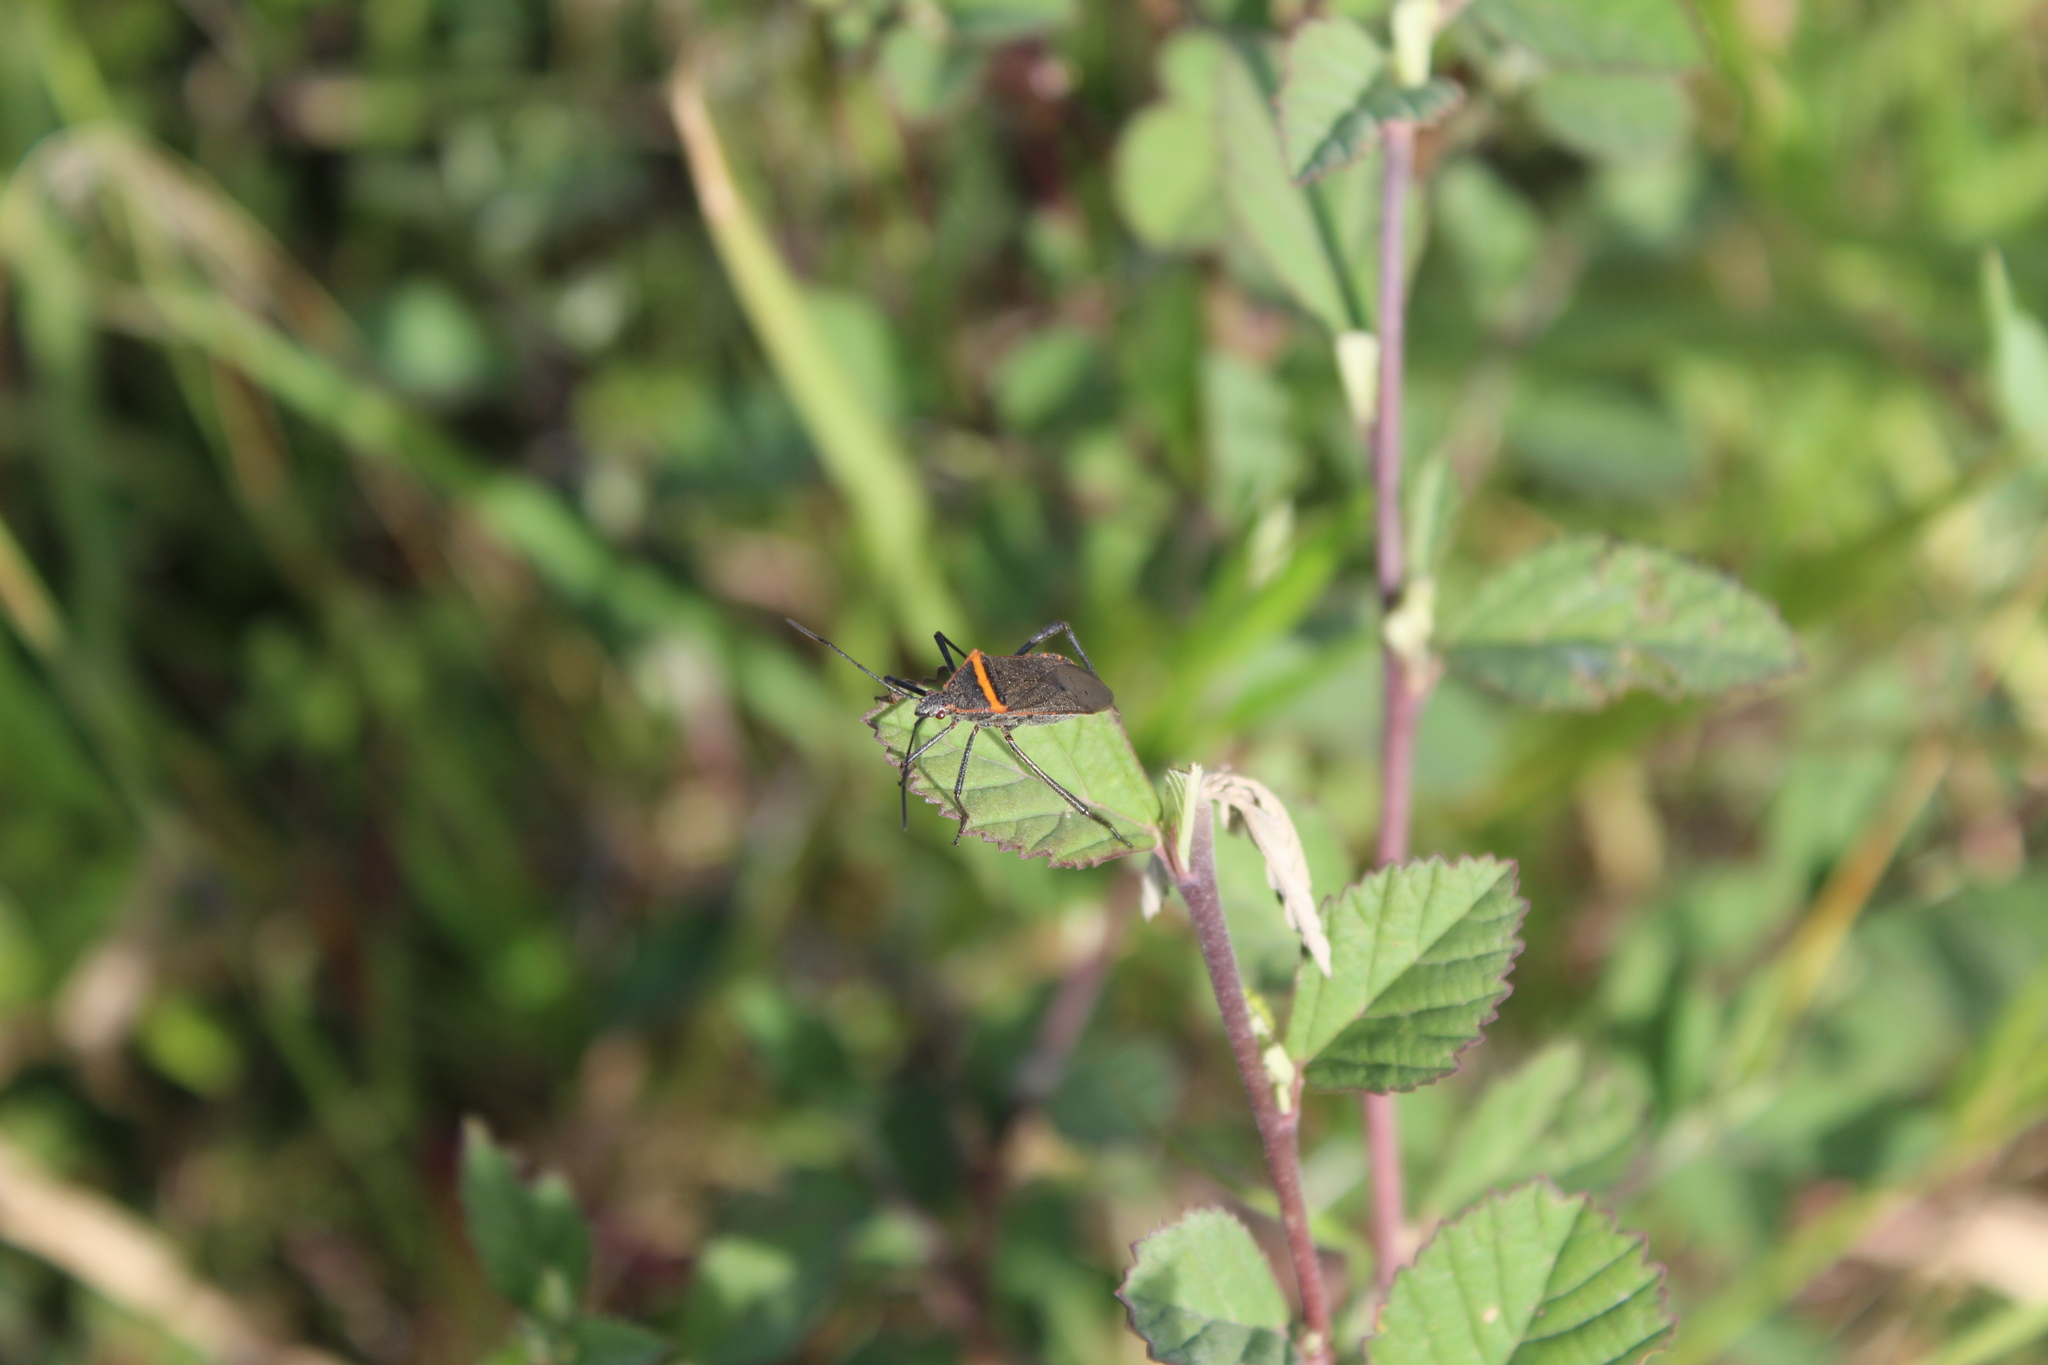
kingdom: Animalia
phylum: Arthropoda
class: Insecta
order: Hemiptera
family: Coreidae
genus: Phthiacnemia
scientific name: Phthiacnemia picta
